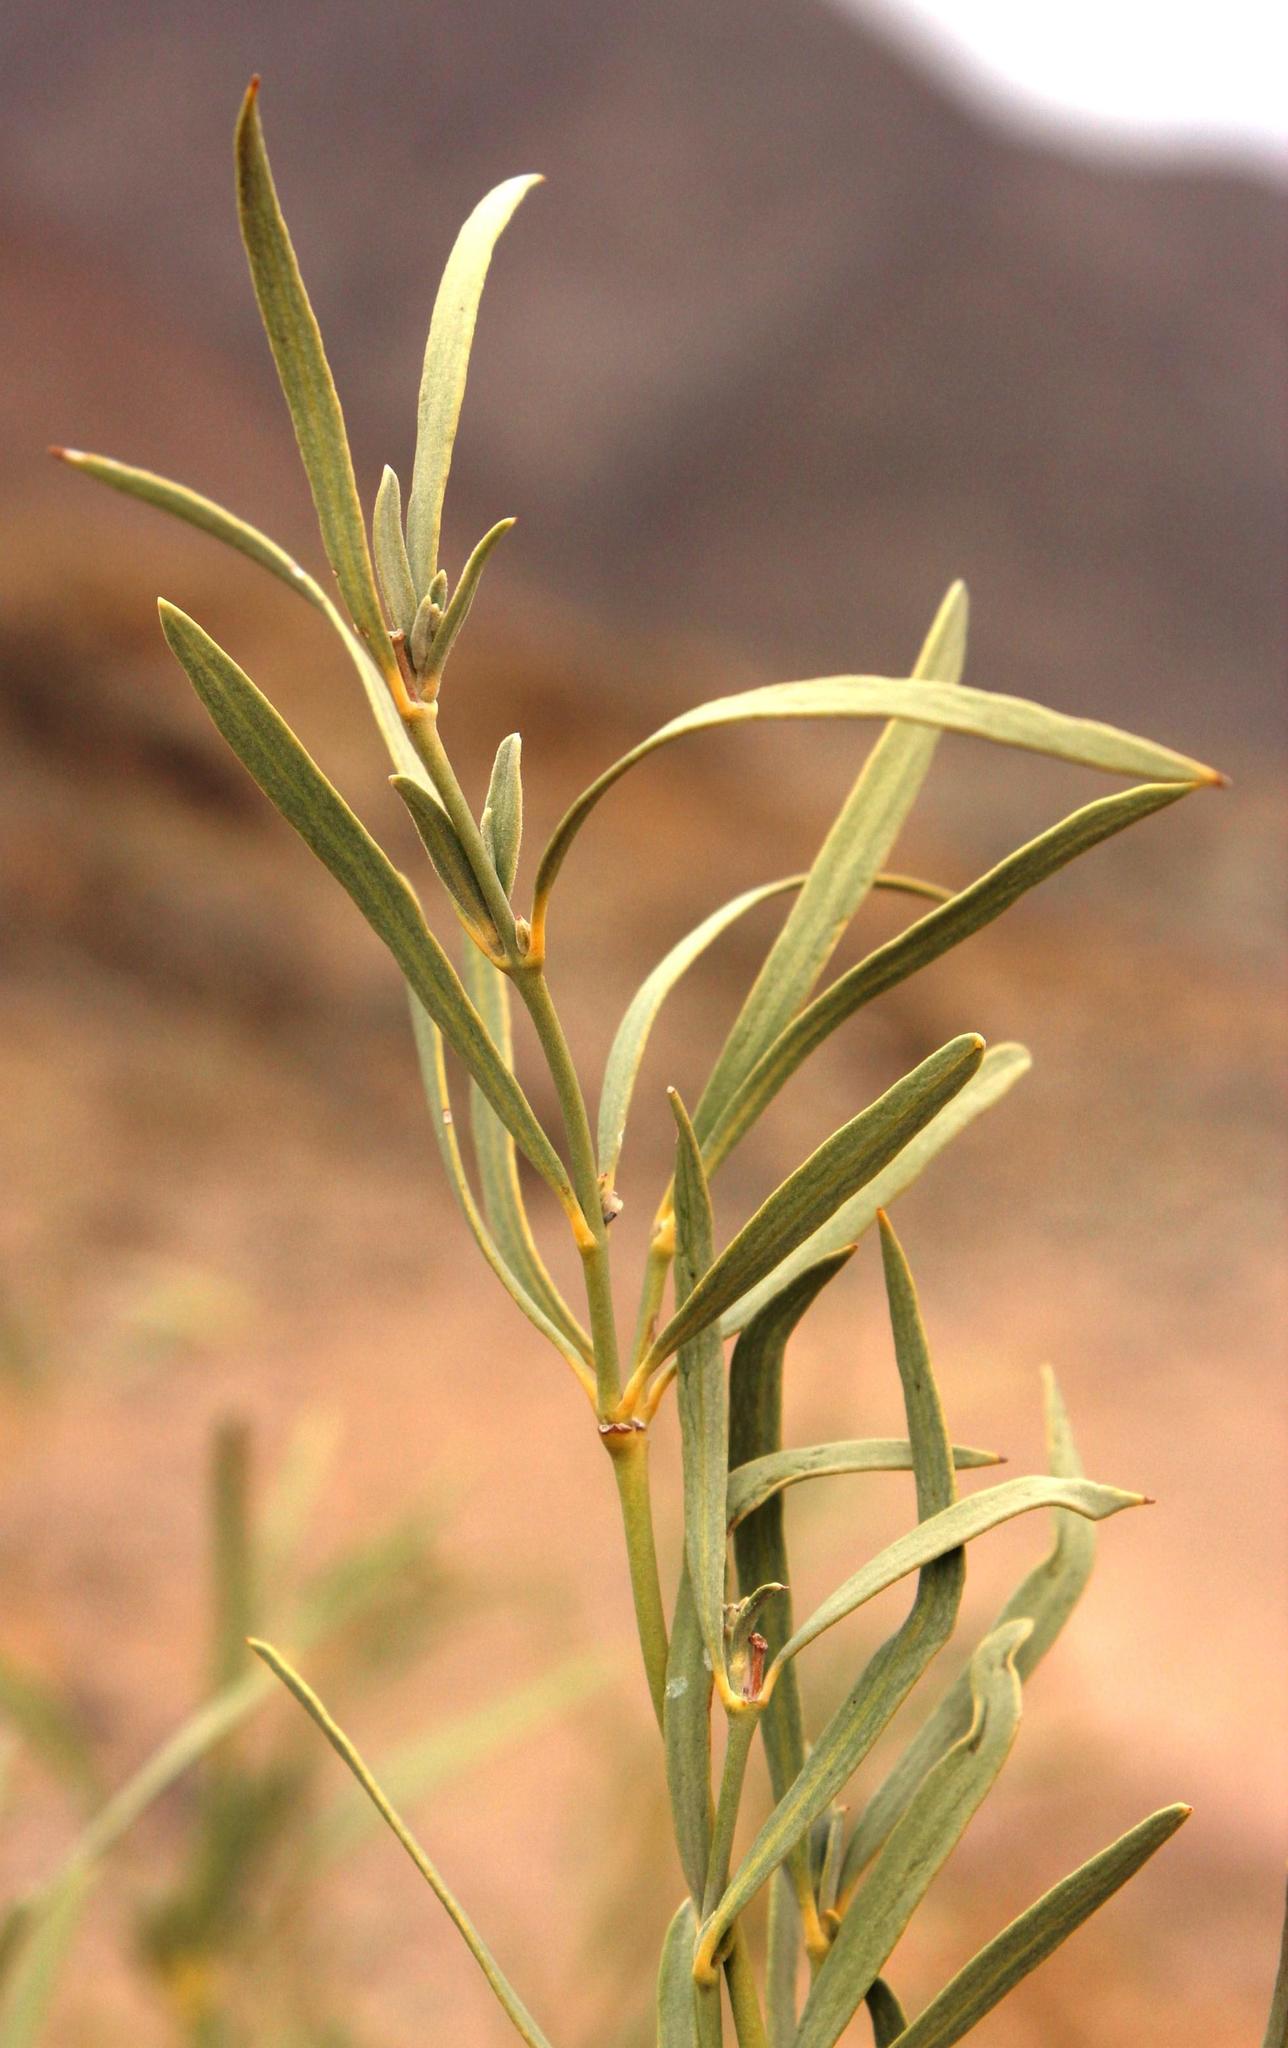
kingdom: Plantae
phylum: Tracheophyta
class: Magnoliopsida
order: Gentianales
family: Apocynaceae
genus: Ectadium
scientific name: Ectadium virgatum
